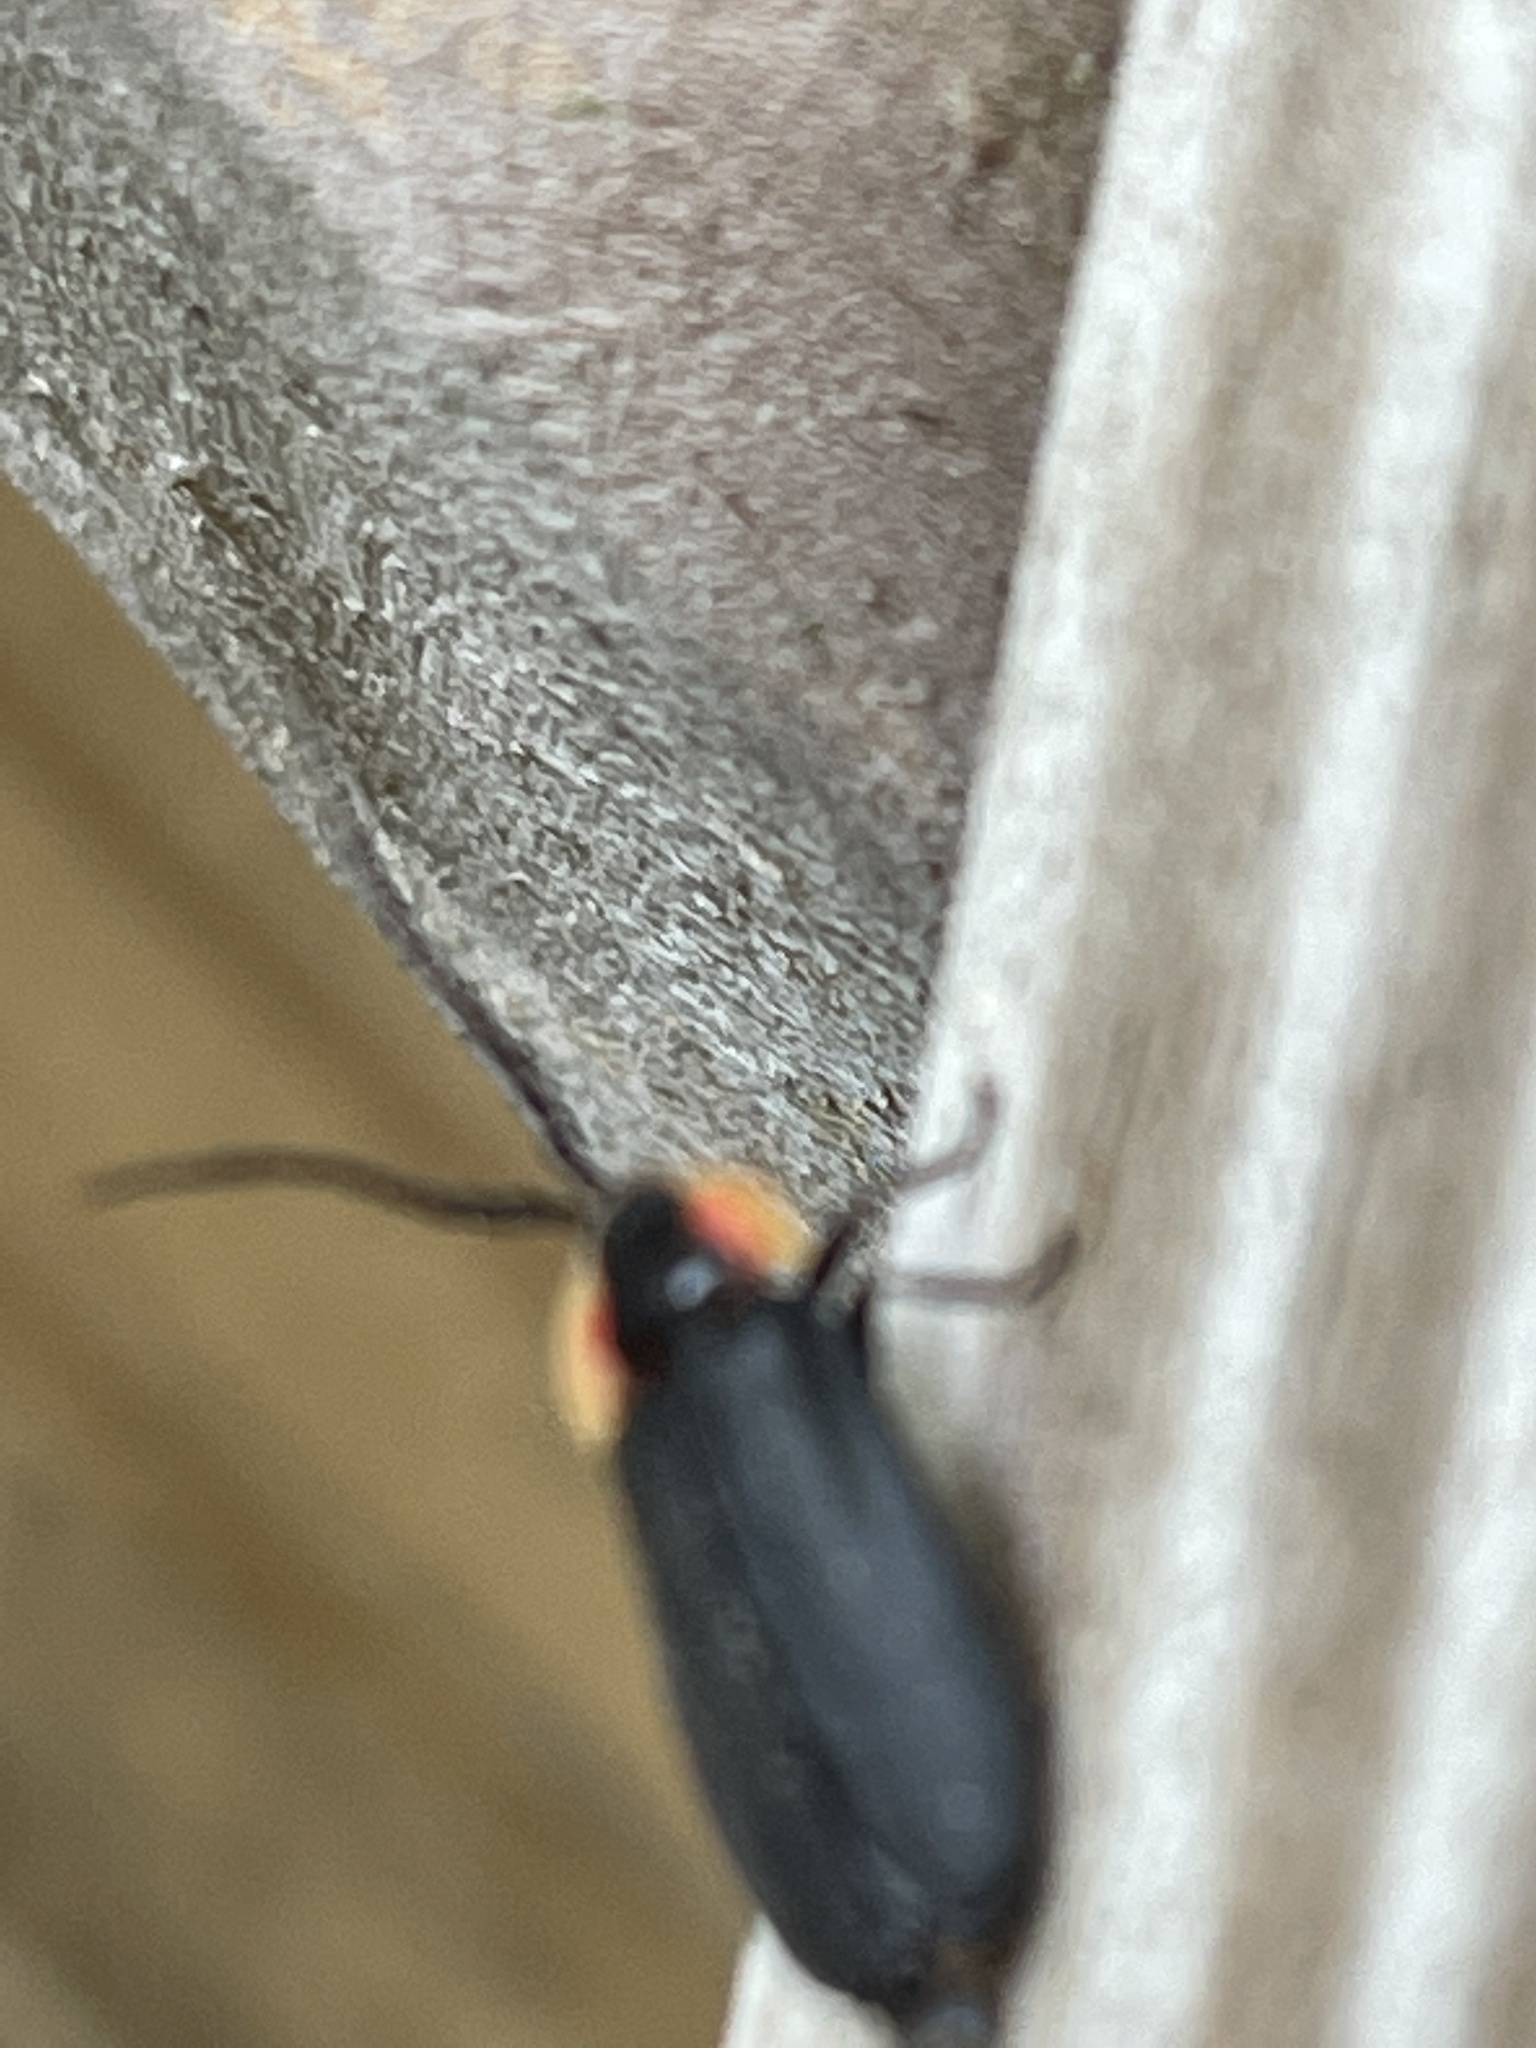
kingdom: Animalia
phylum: Arthropoda
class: Insecta
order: Coleoptera
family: Lampyridae
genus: Lucidota
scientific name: Lucidota atra
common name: Black firefly
